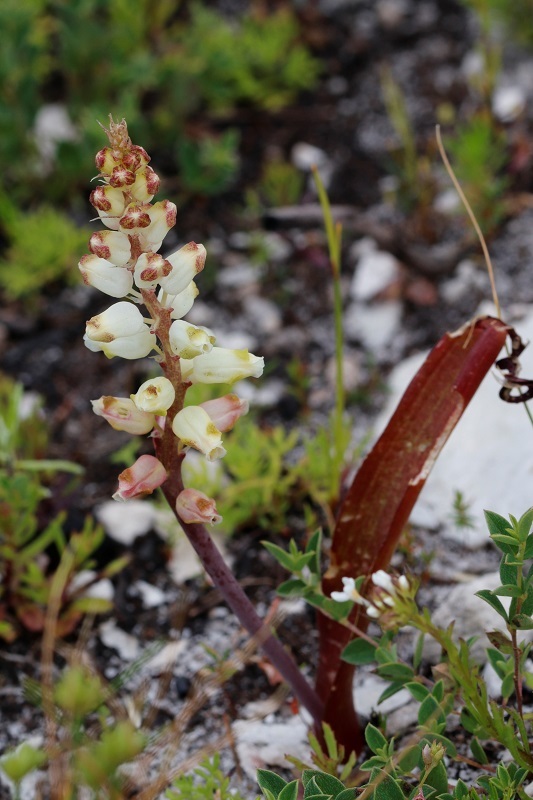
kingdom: Plantae
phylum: Tracheophyta
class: Liliopsida
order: Asparagales
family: Asparagaceae
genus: Lachenalia
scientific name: Lachenalia peersii
